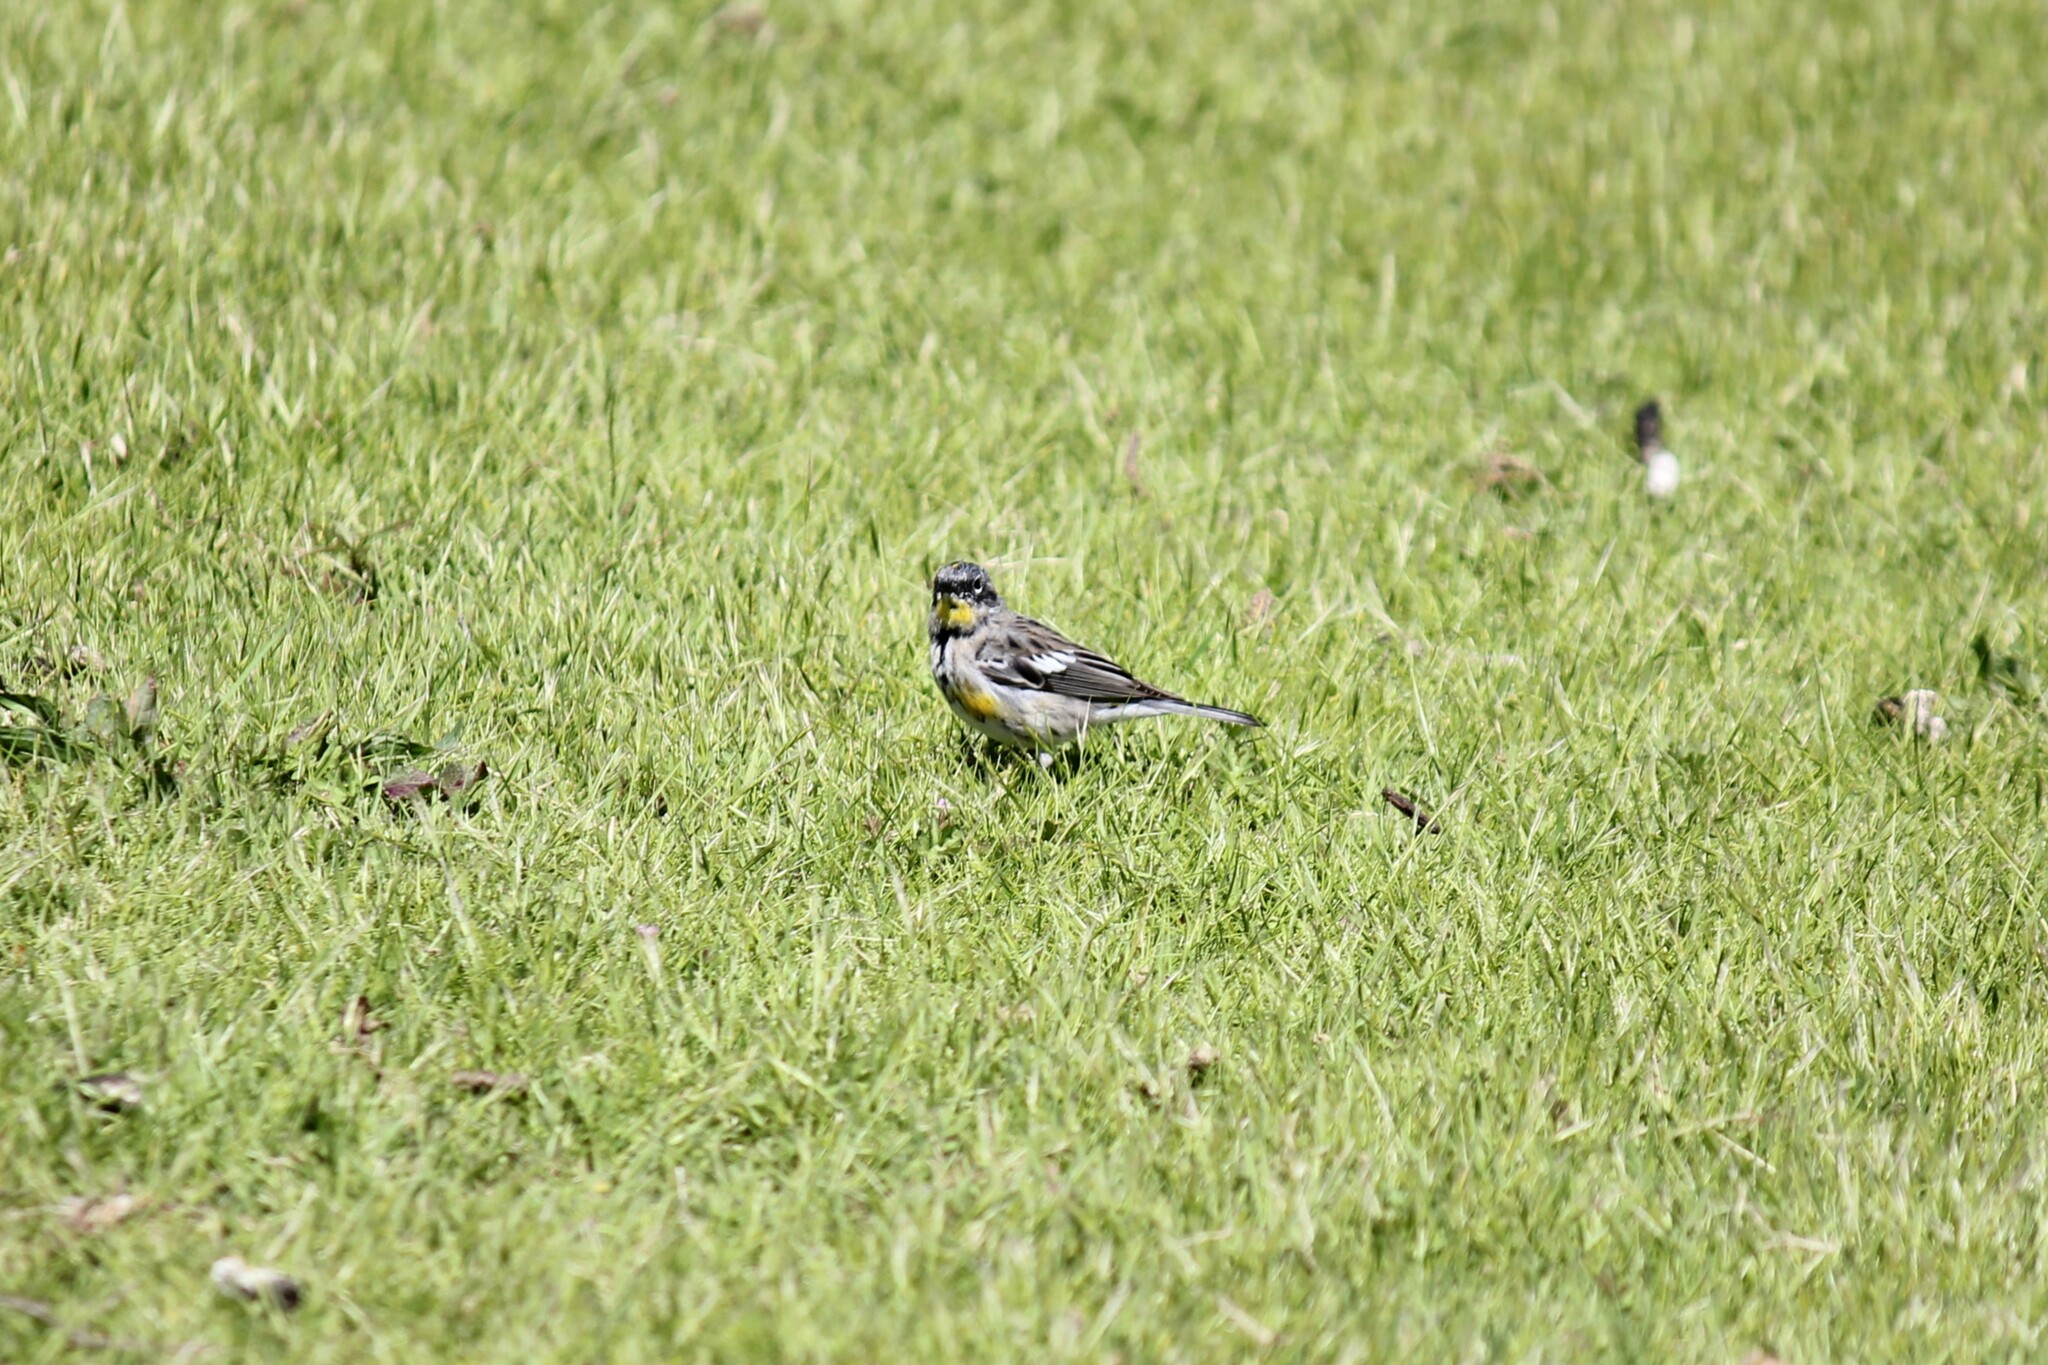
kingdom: Animalia
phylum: Chordata
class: Aves
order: Passeriformes
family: Parulidae
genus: Setophaga
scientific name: Setophaga coronata
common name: Myrtle warbler
